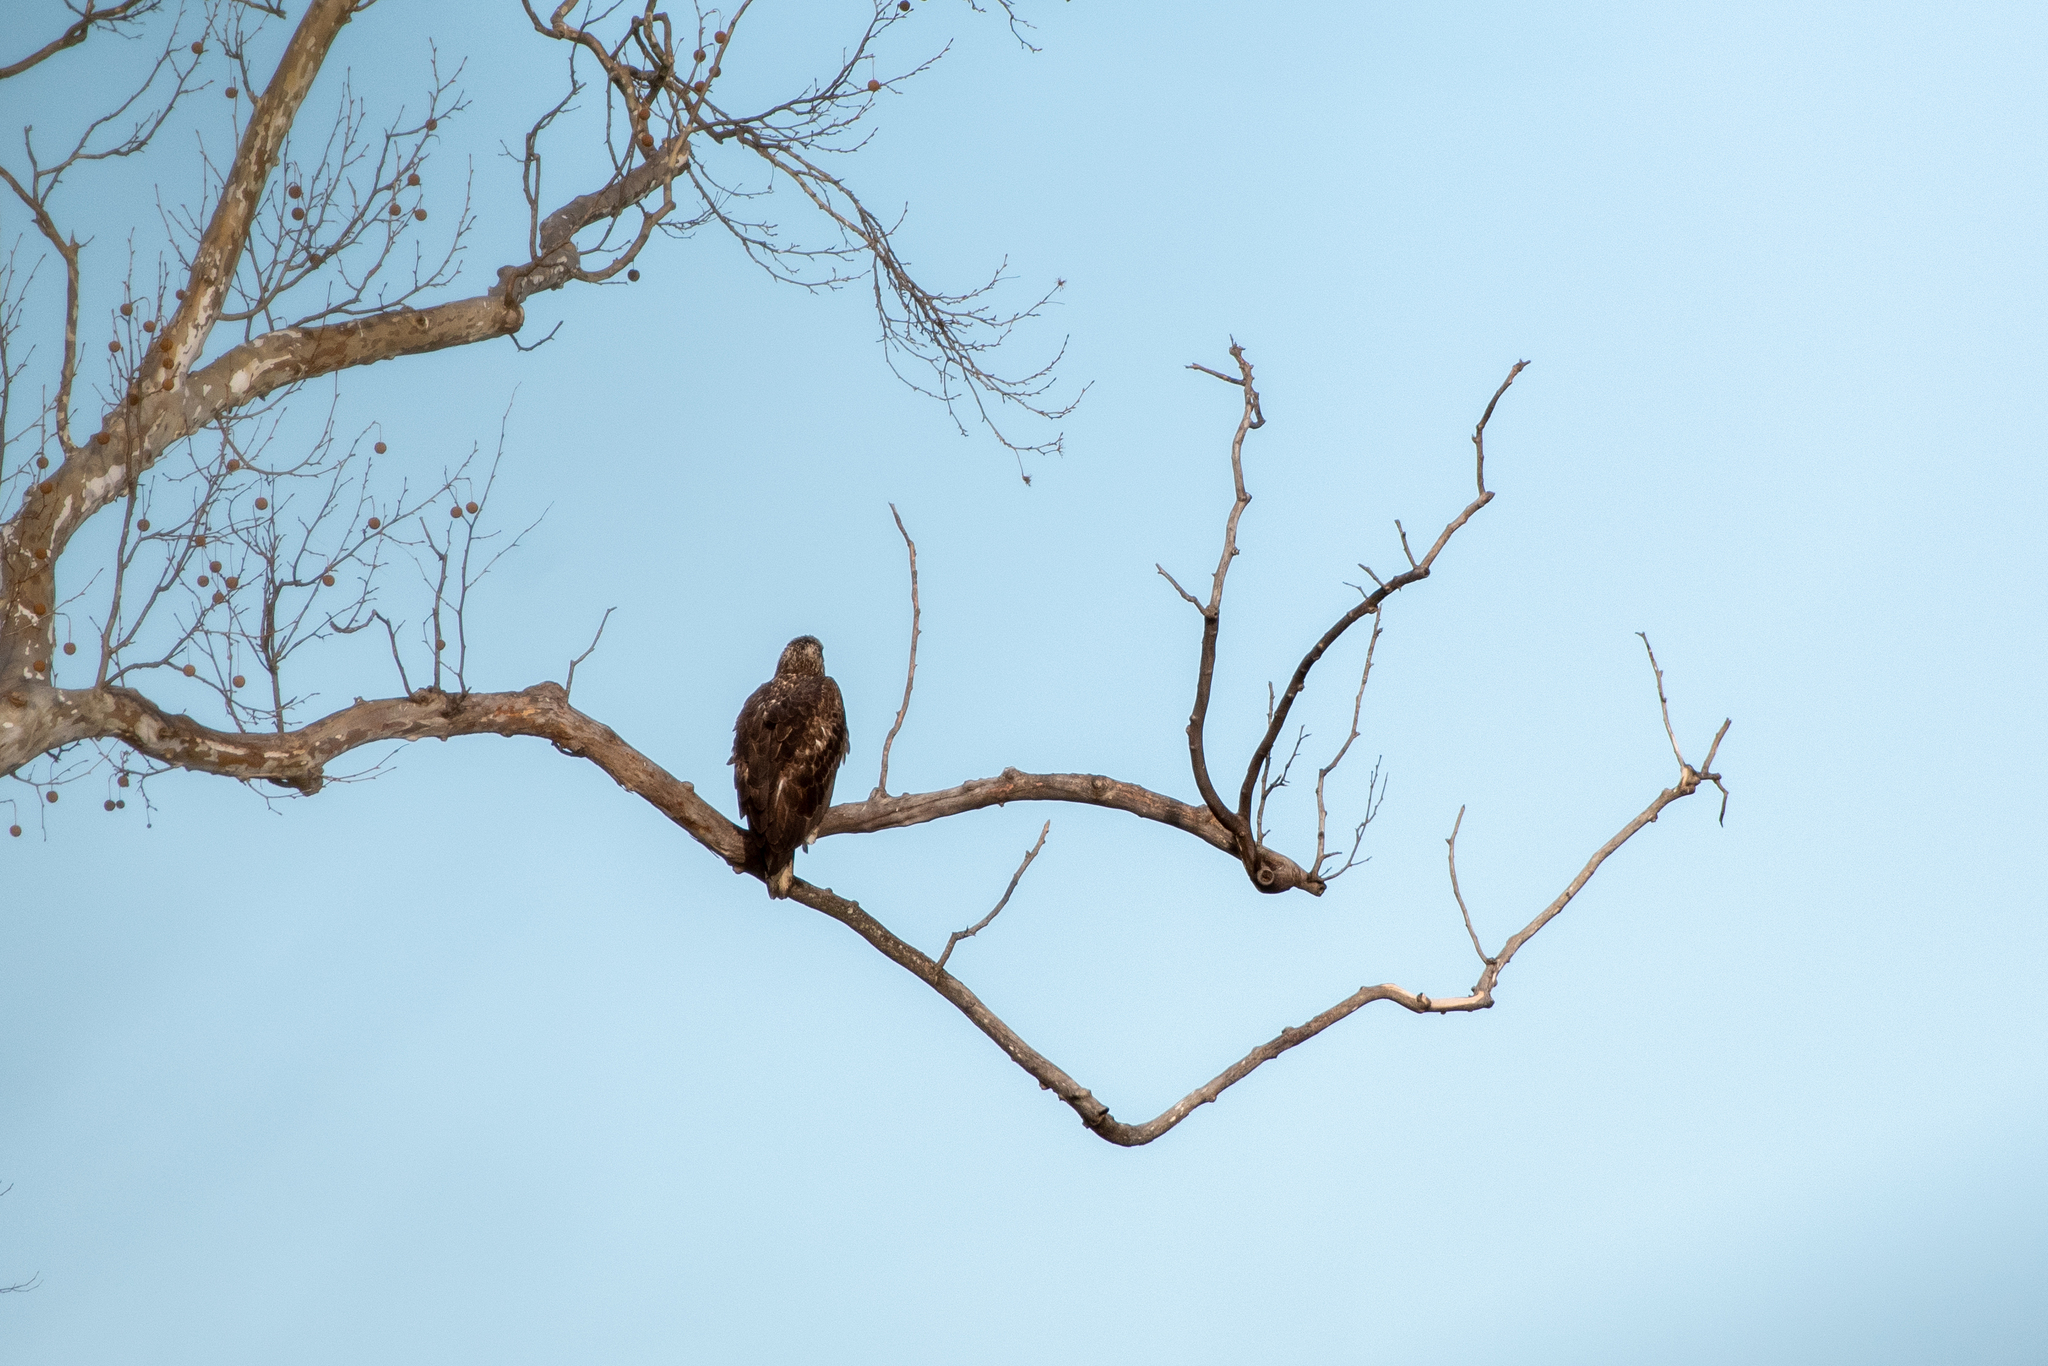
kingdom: Animalia
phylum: Chordata
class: Aves
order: Accipitriformes
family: Accipitridae
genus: Haliaeetus
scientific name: Haliaeetus leucocephalus
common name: Bald eagle
